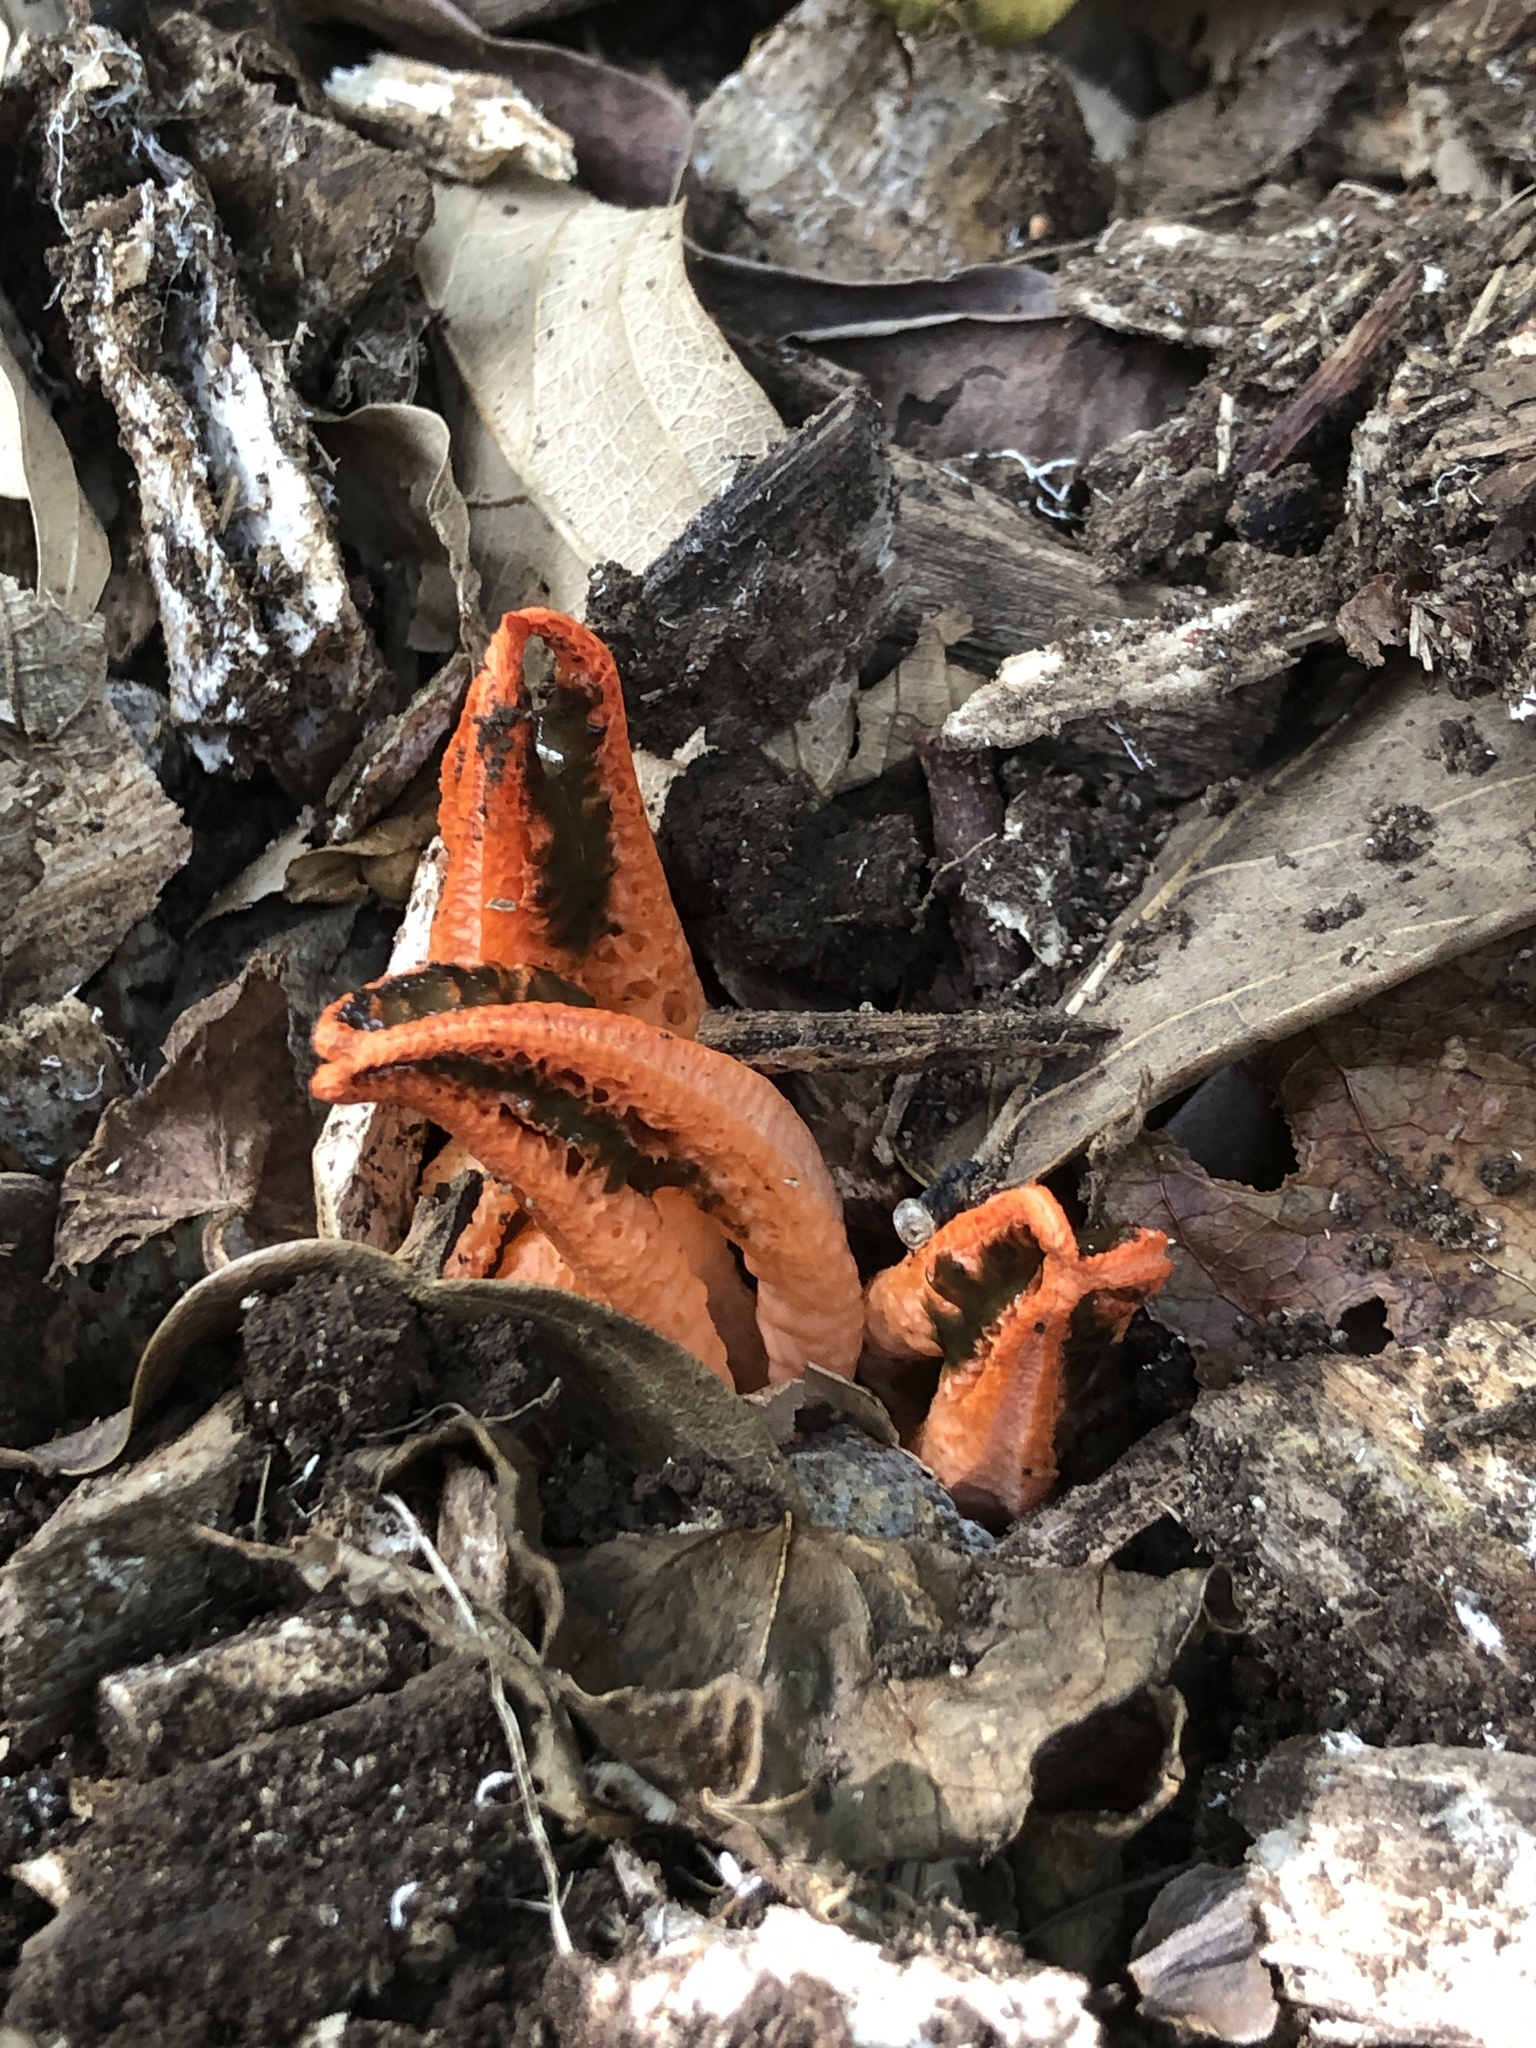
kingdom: Fungi
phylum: Basidiomycota
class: Agaricomycetes
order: Phallales
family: Phallaceae
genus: Pseudocolus
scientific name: Pseudocolus fusiformis
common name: Stinky squid
